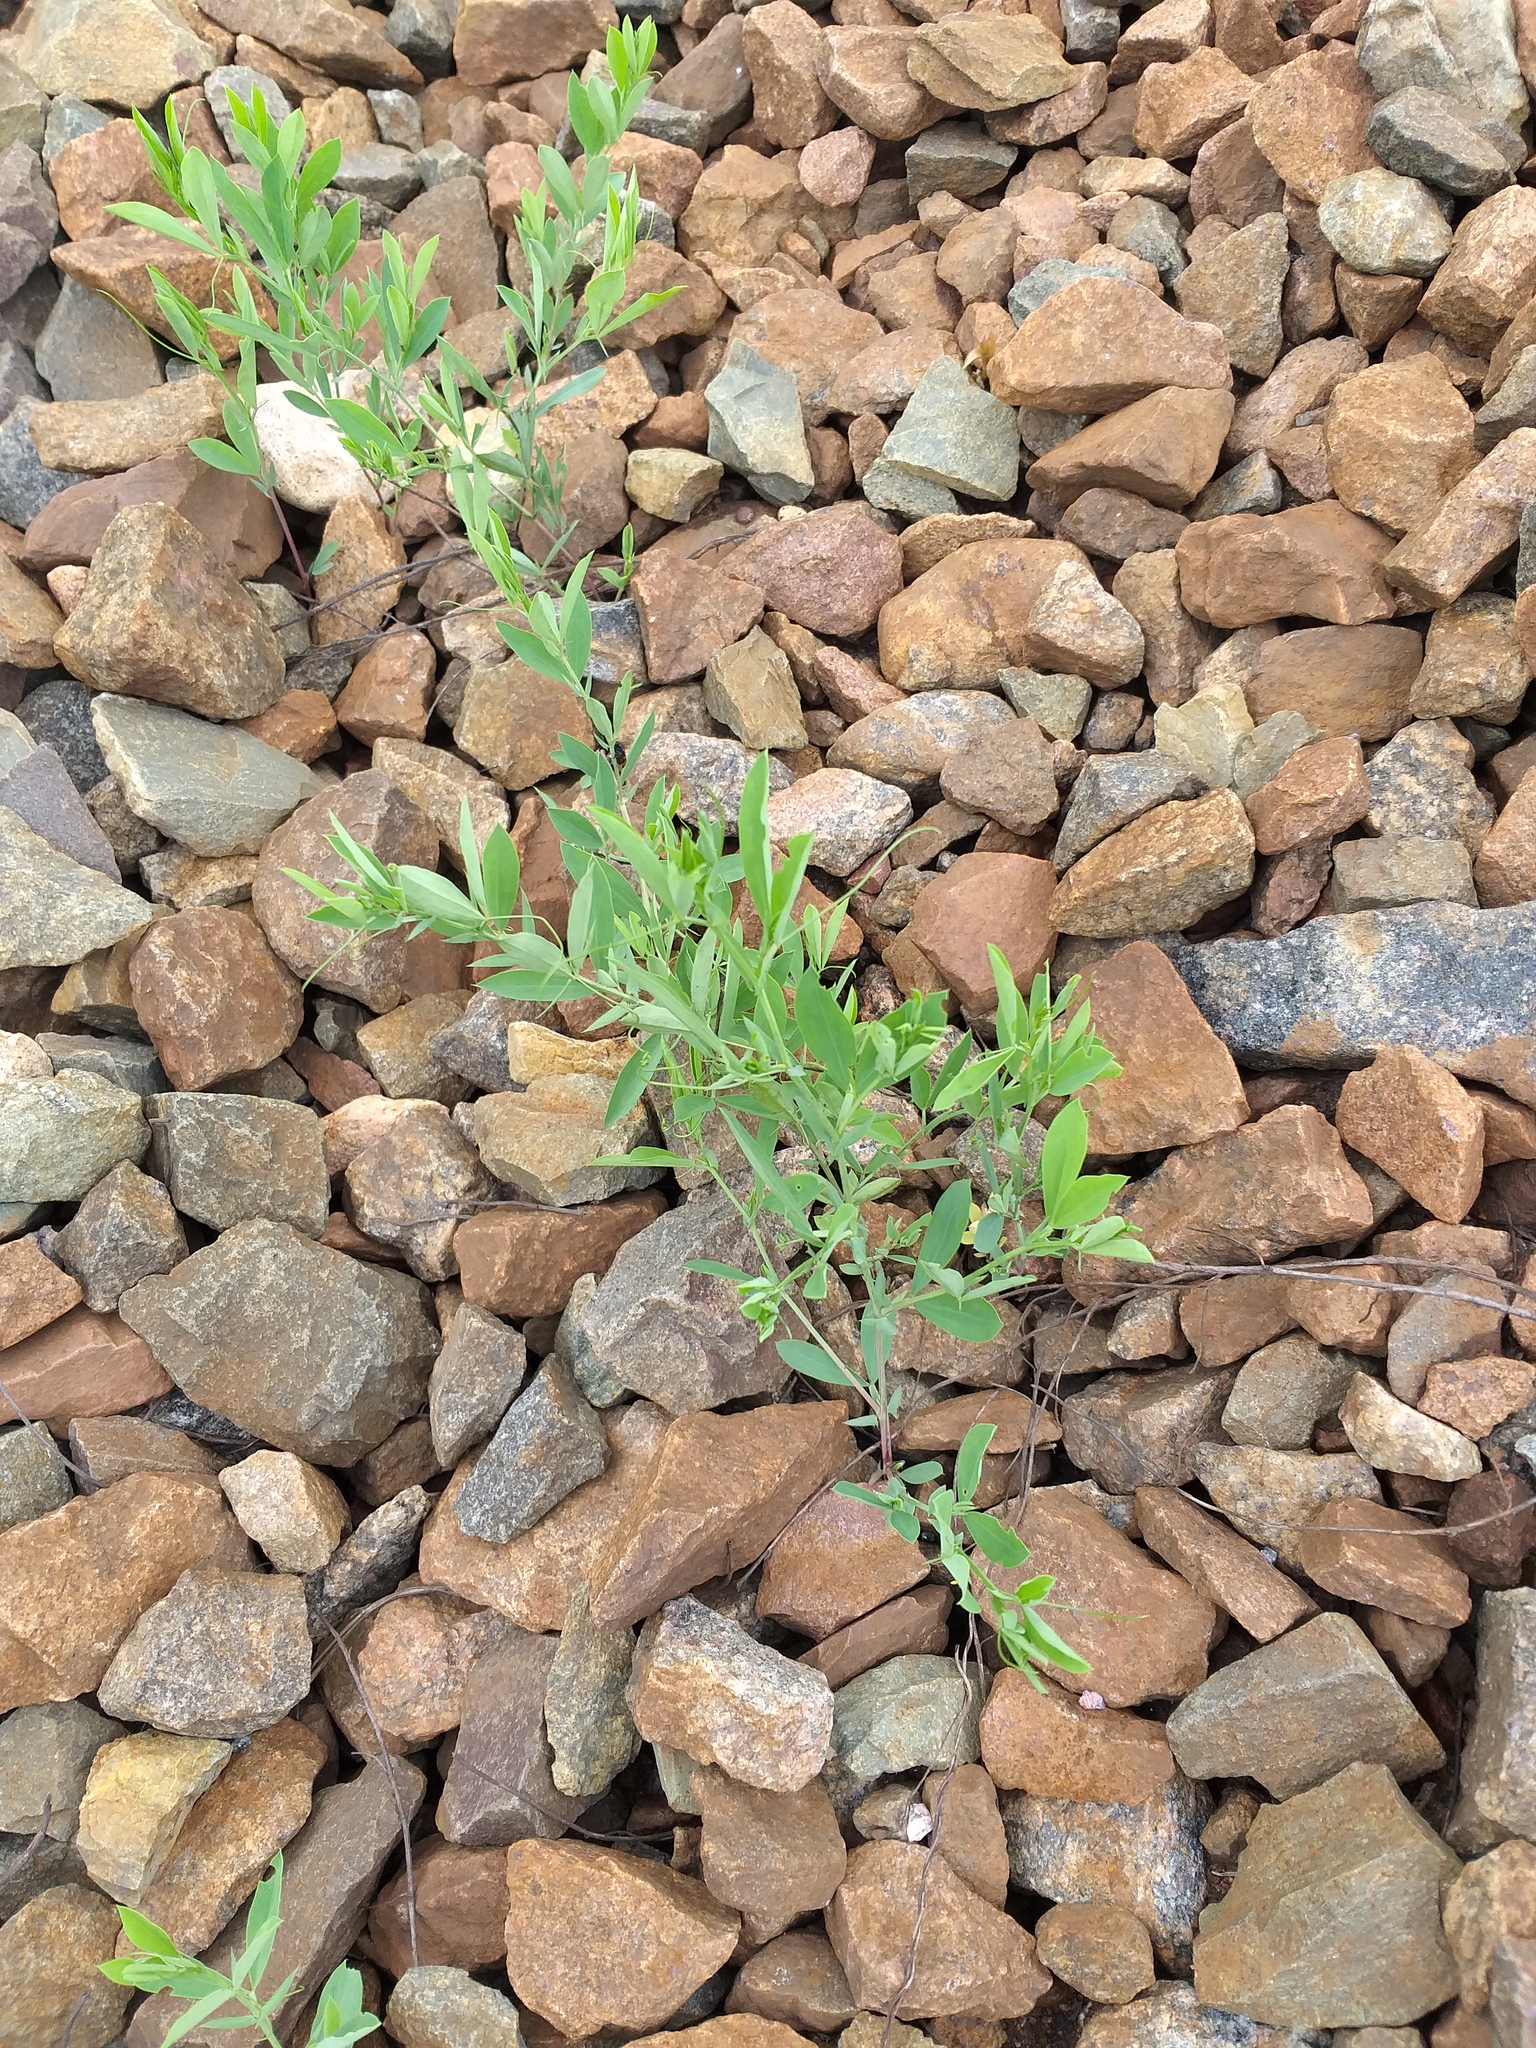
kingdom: Plantae
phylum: Tracheophyta
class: Magnoliopsida
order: Fabales
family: Fabaceae
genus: Lathyrus
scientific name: Lathyrus tuberosus
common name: Tuberous pea
